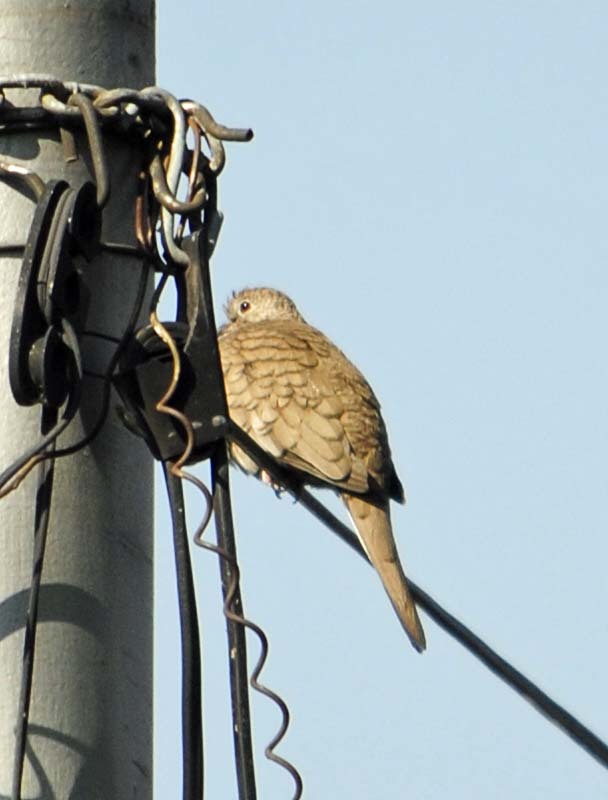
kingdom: Animalia
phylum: Chordata
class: Aves
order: Columbiformes
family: Columbidae
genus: Columbina
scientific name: Columbina inca
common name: Inca dove
